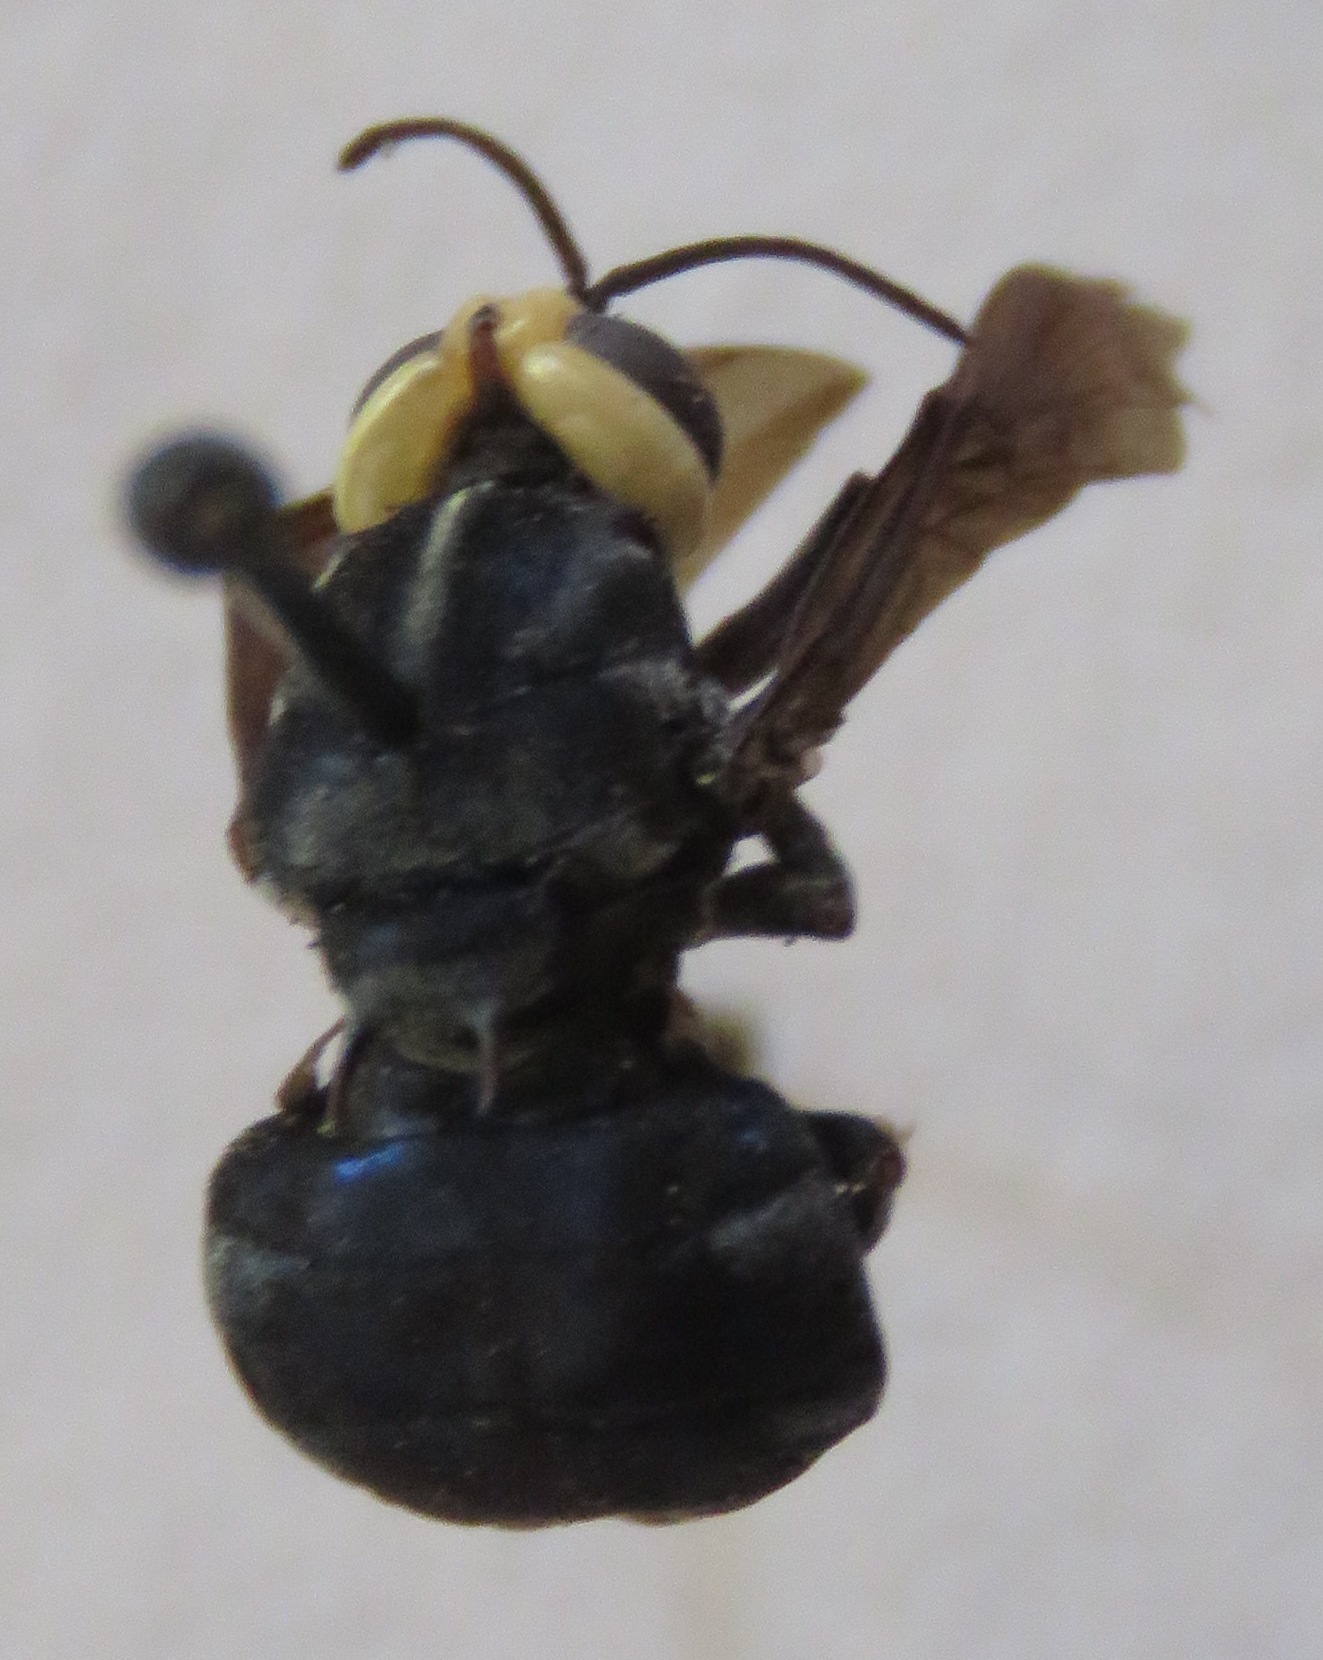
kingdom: Animalia
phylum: Arthropoda
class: Insecta
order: Diptera
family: Stratiomyidae
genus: Cyphomyia
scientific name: Cyphomyia leucocephala
